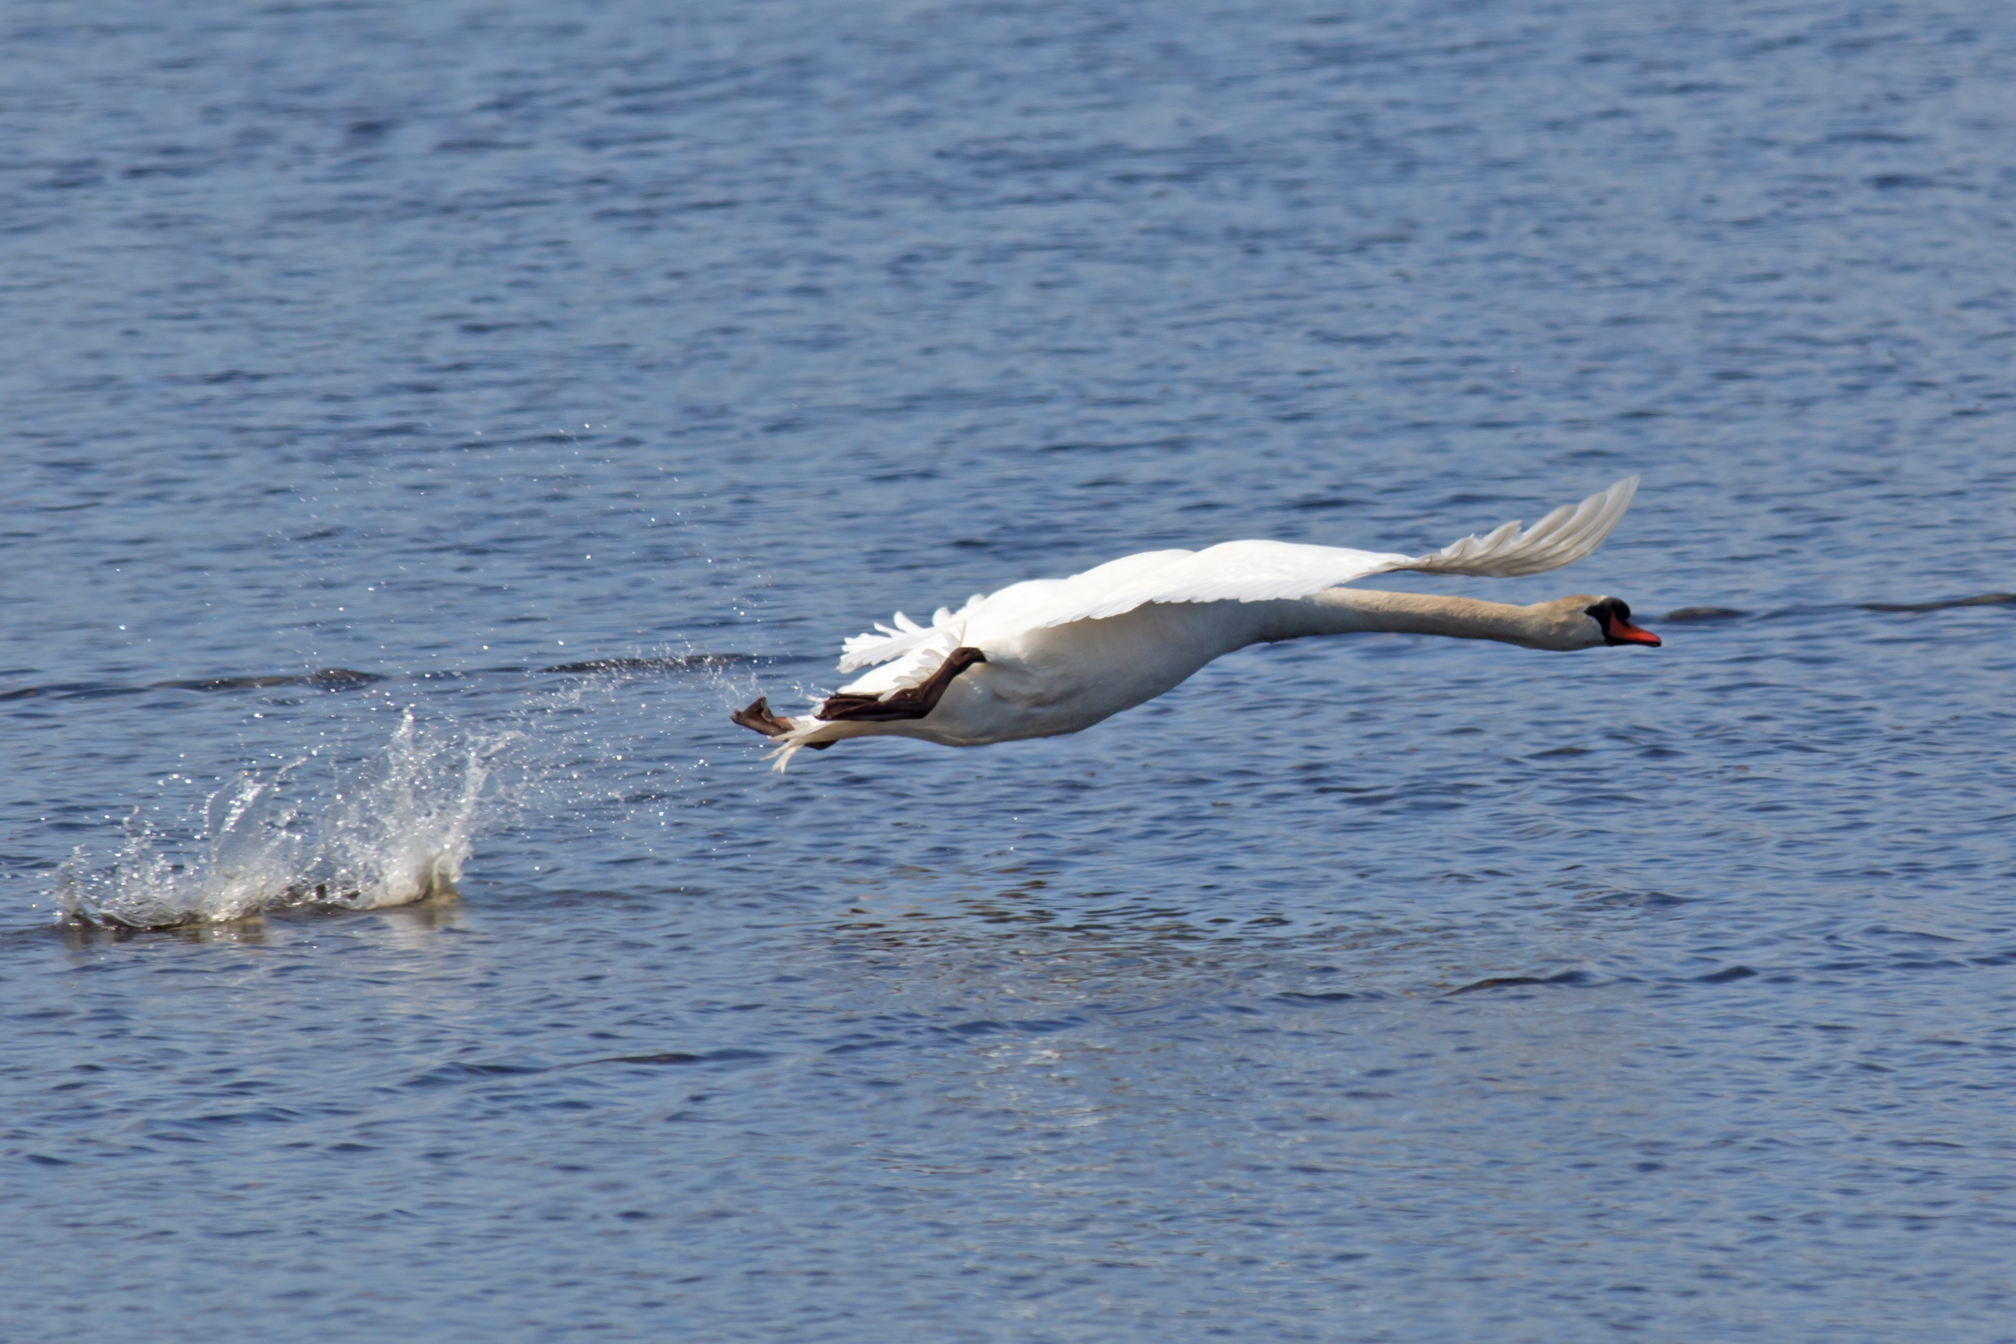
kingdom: Animalia
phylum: Chordata
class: Aves
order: Anseriformes
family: Anatidae
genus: Cygnus
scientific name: Cygnus olor
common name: Mute swan
